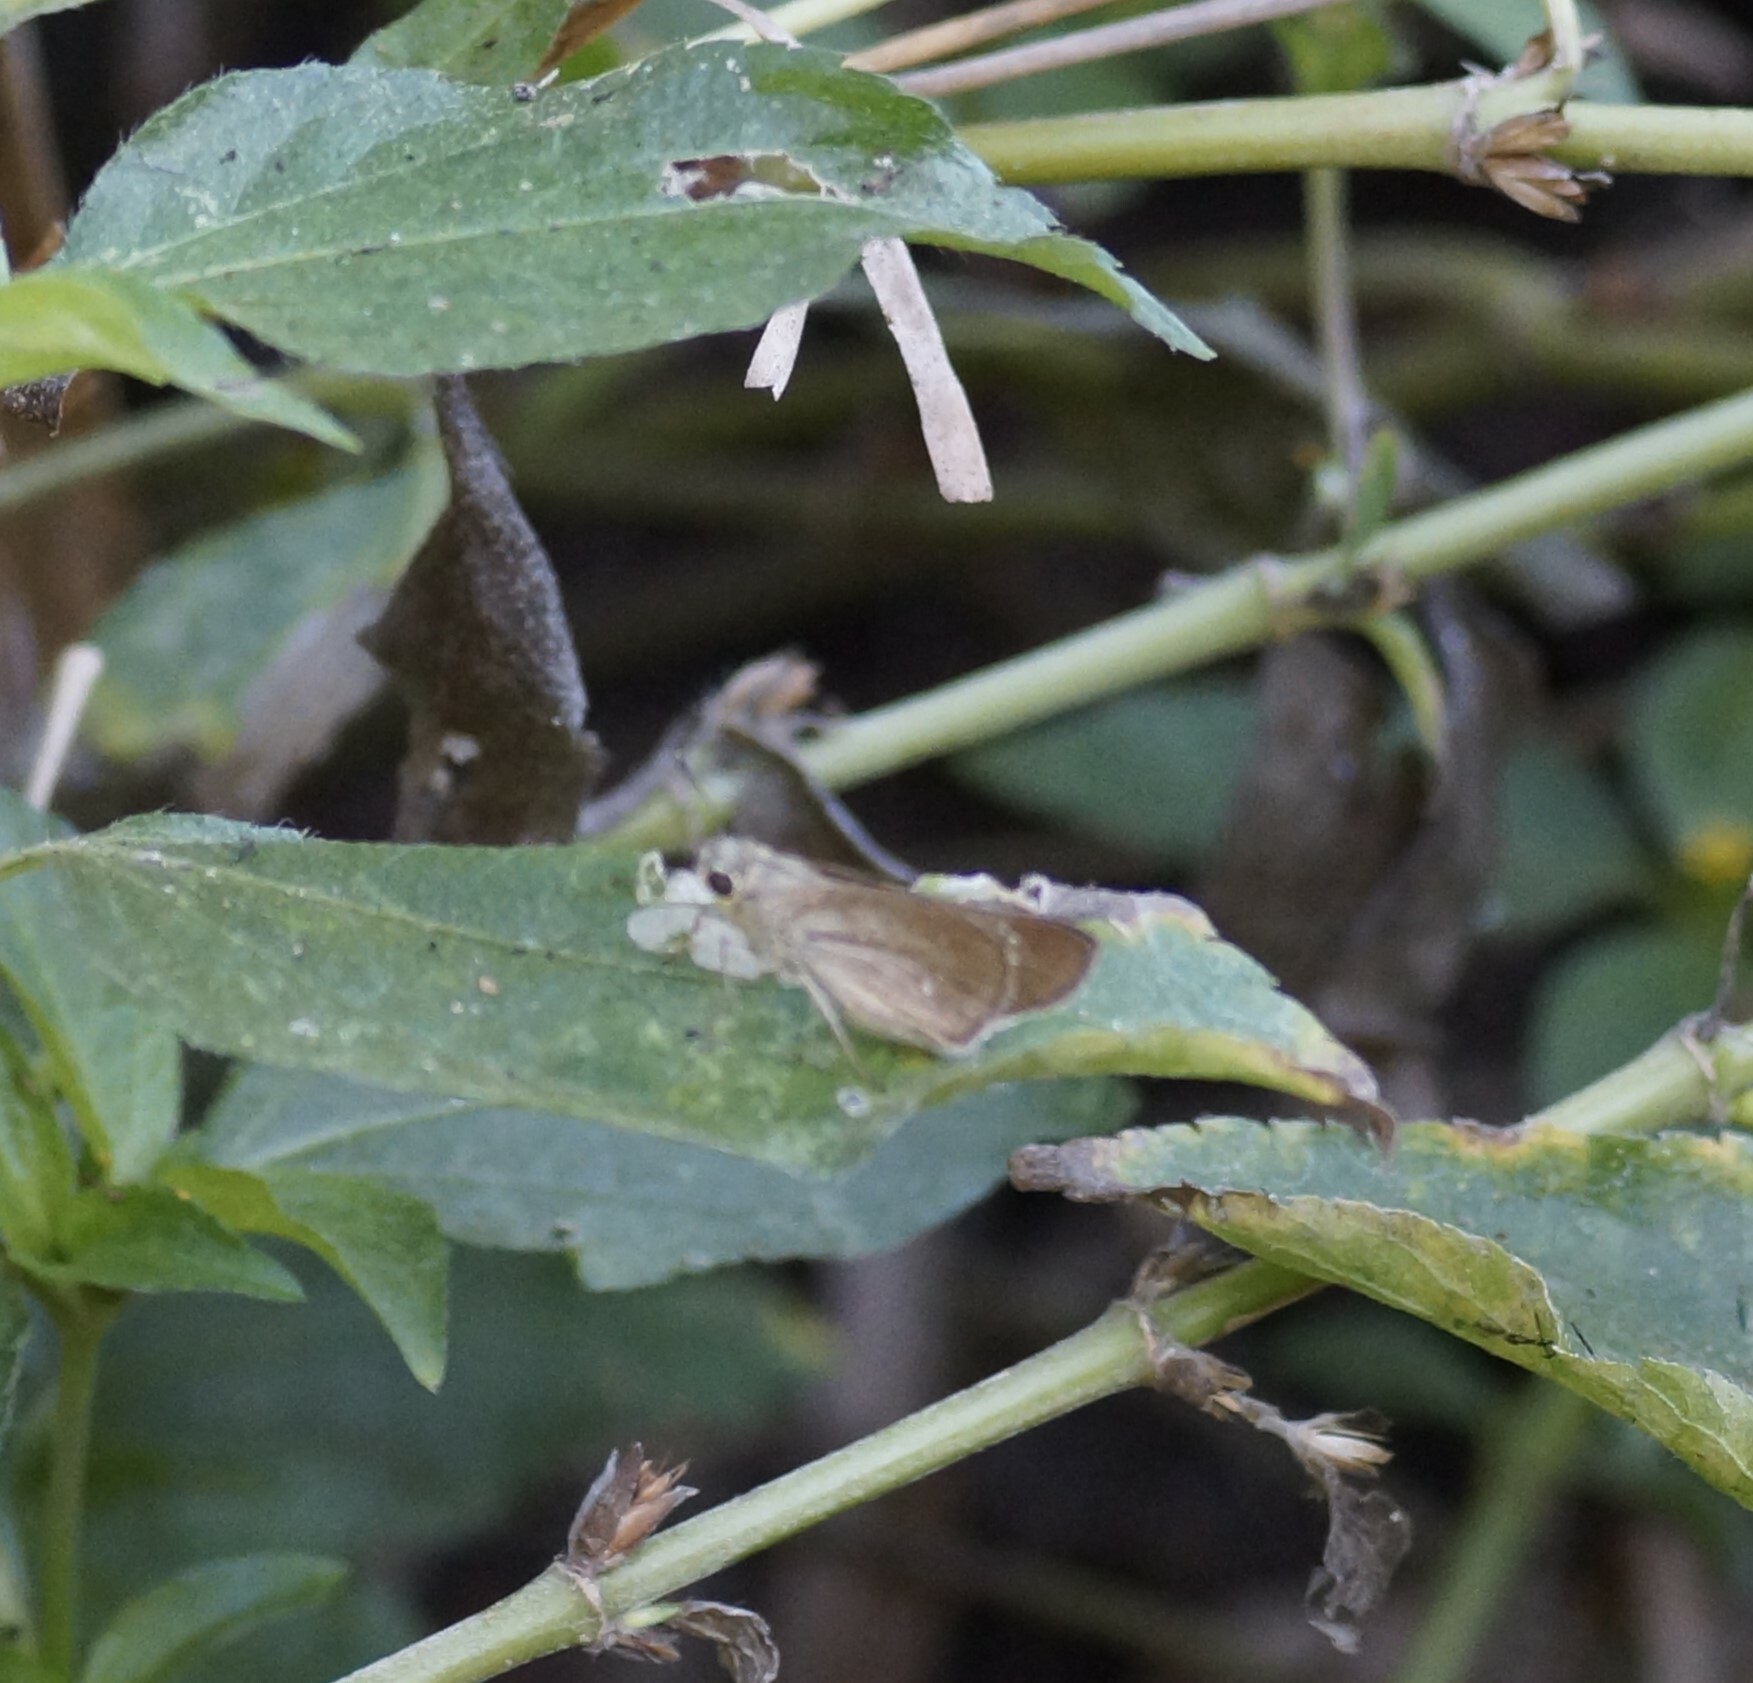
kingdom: Animalia
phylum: Arthropoda
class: Insecta
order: Lepidoptera
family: Hesperiidae
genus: Pelopidas
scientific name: Pelopidas lyelli
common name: Lyell's swift
